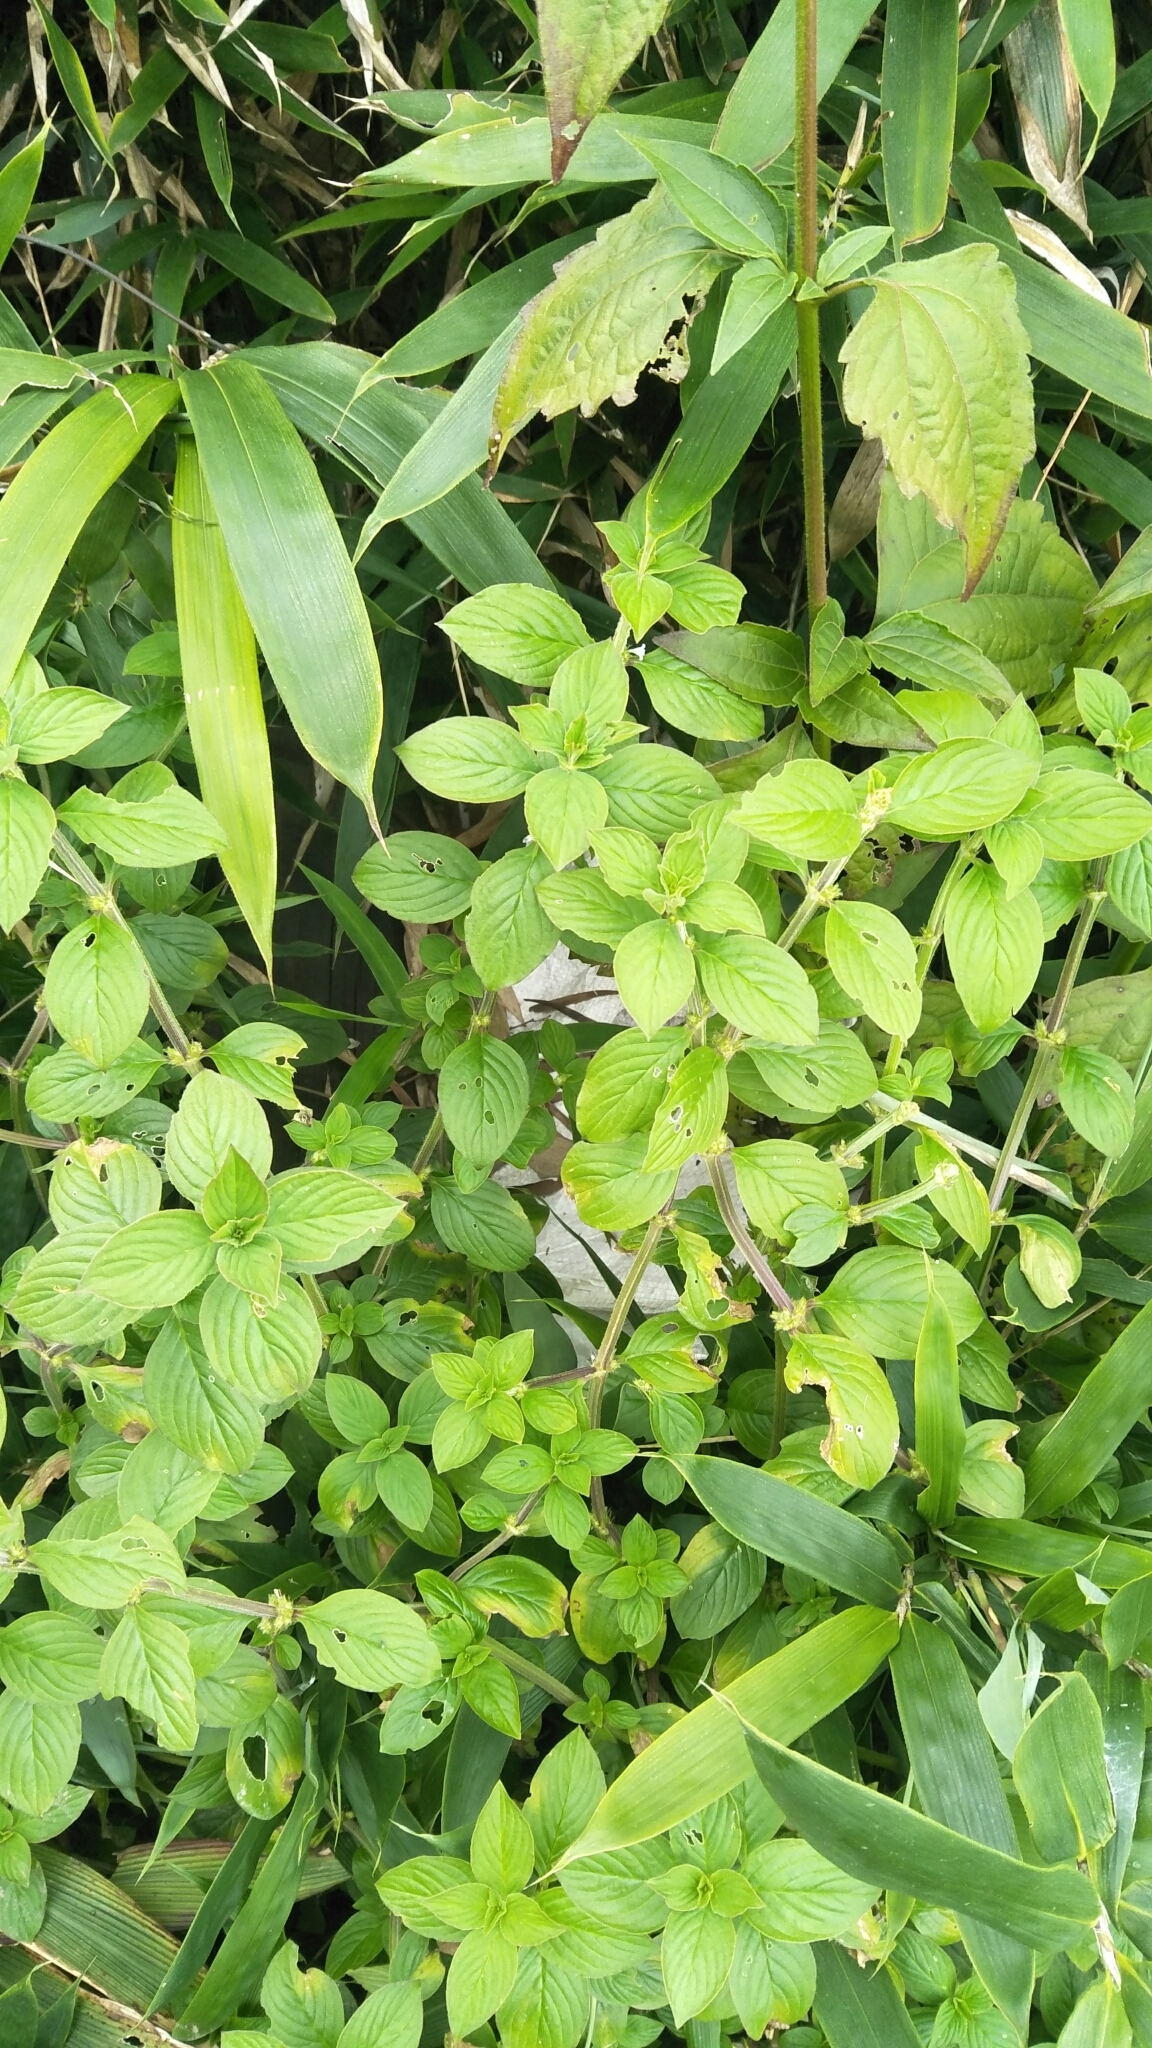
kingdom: Plantae
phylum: Tracheophyta
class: Magnoliopsida
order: Gentianales
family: Rubiaceae
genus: Spermacoce
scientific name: Spermacoce latifolia
